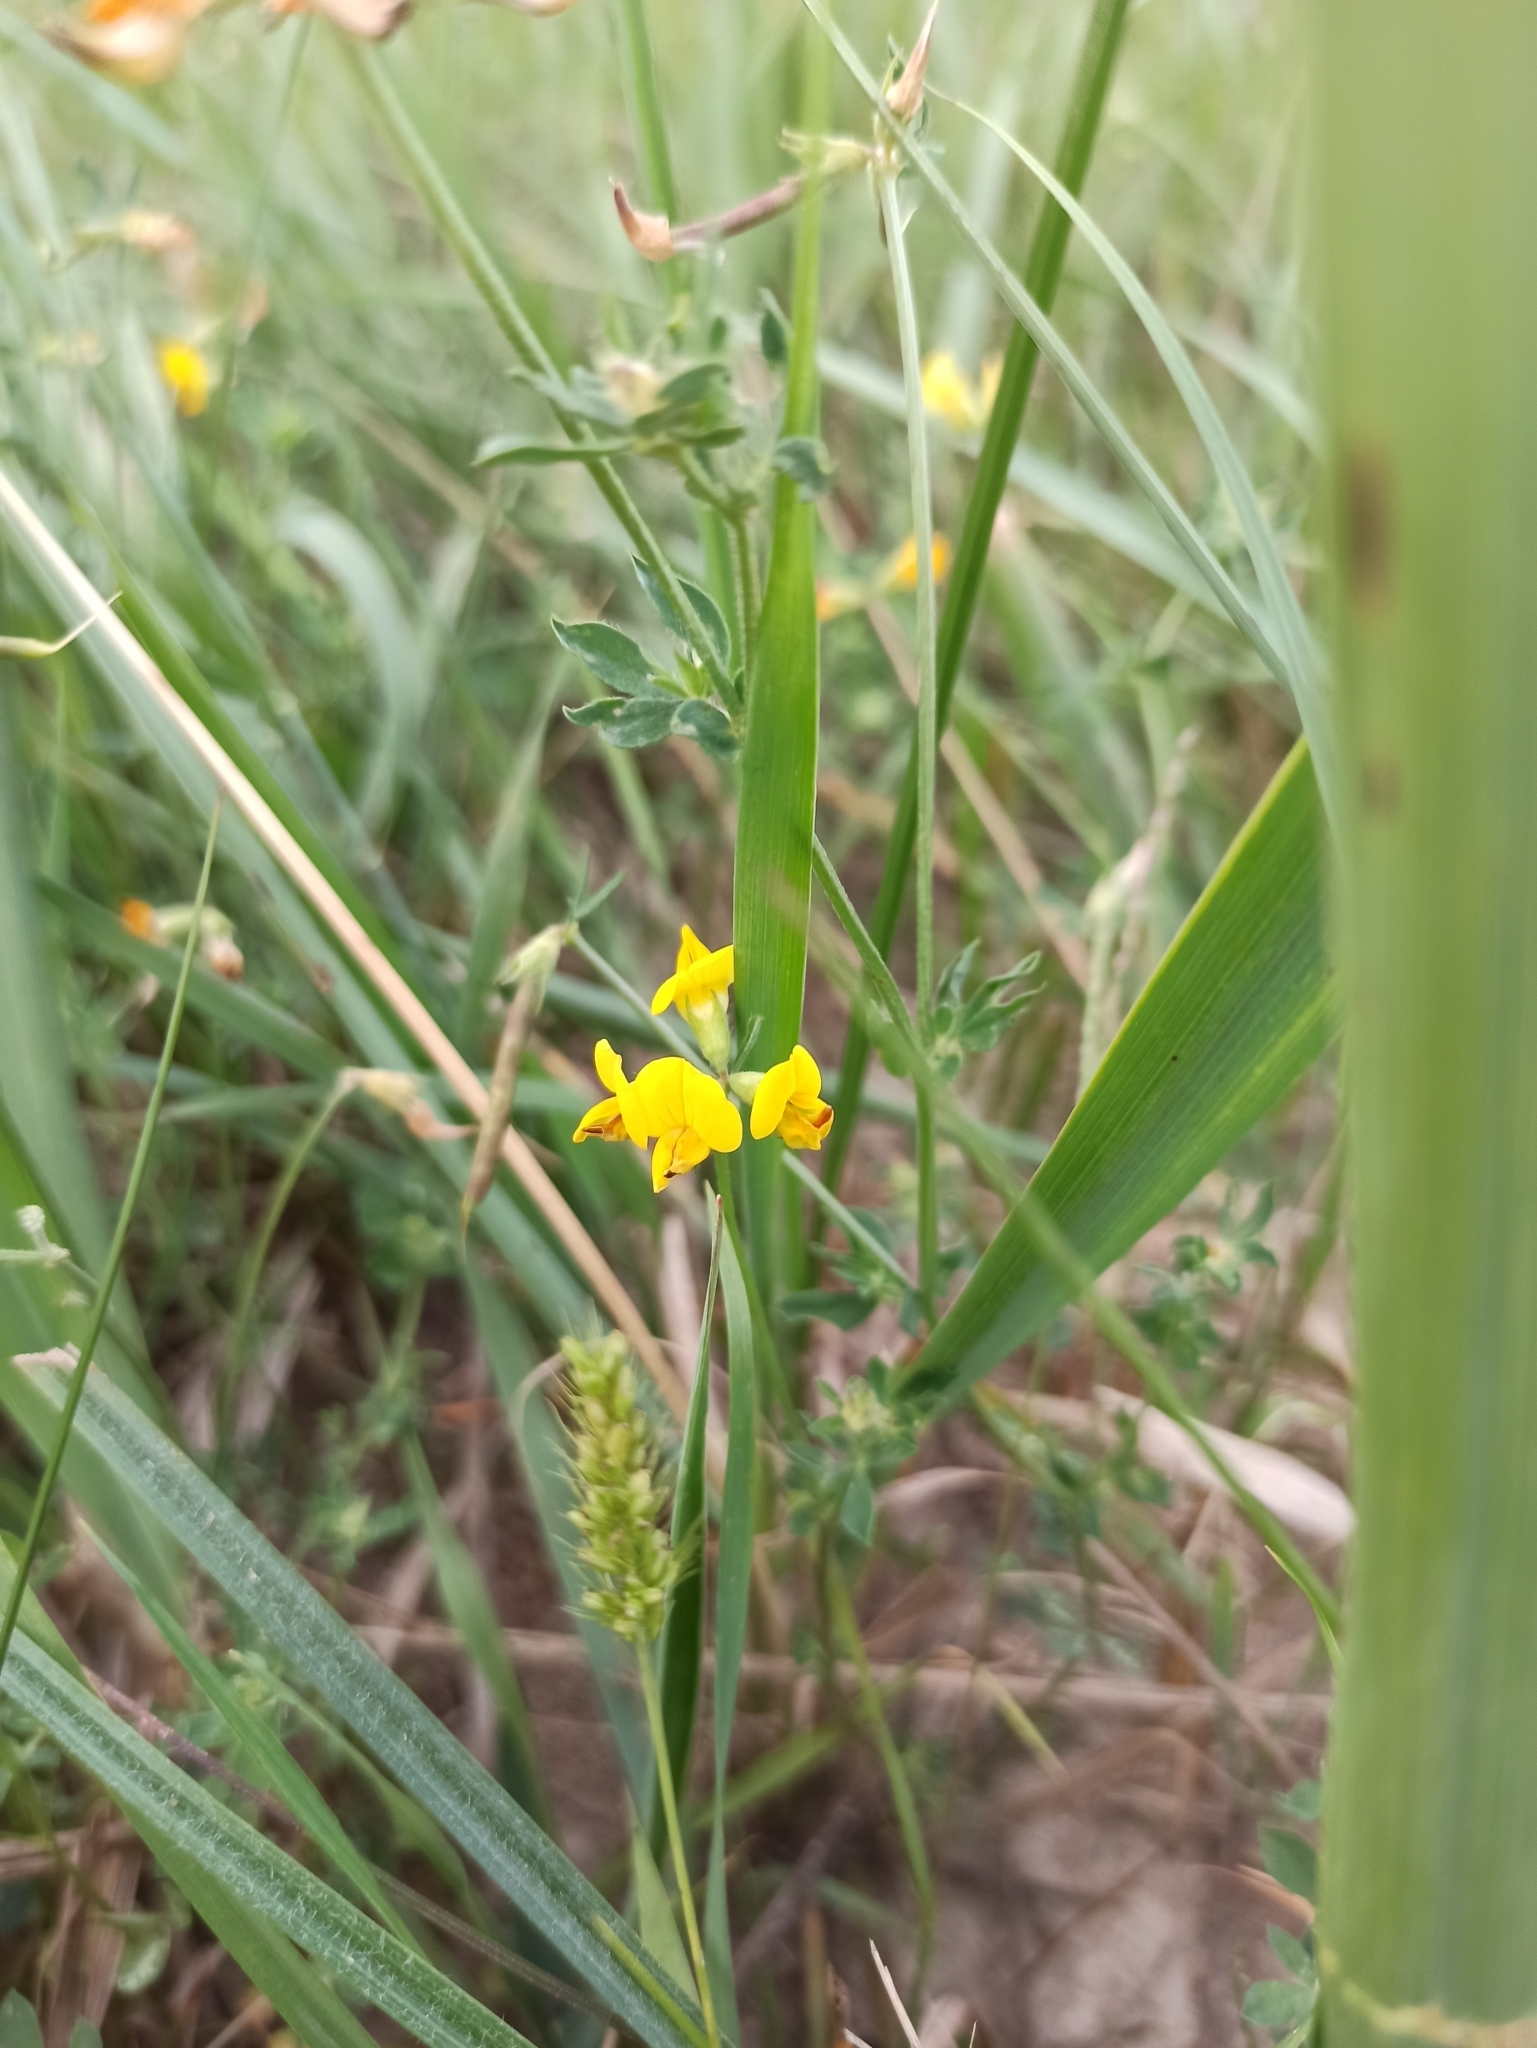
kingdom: Plantae
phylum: Tracheophyta
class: Magnoliopsida
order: Fabales
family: Fabaceae
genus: Lotus
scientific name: Lotus corniculatus
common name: Common bird's-foot-trefoil
